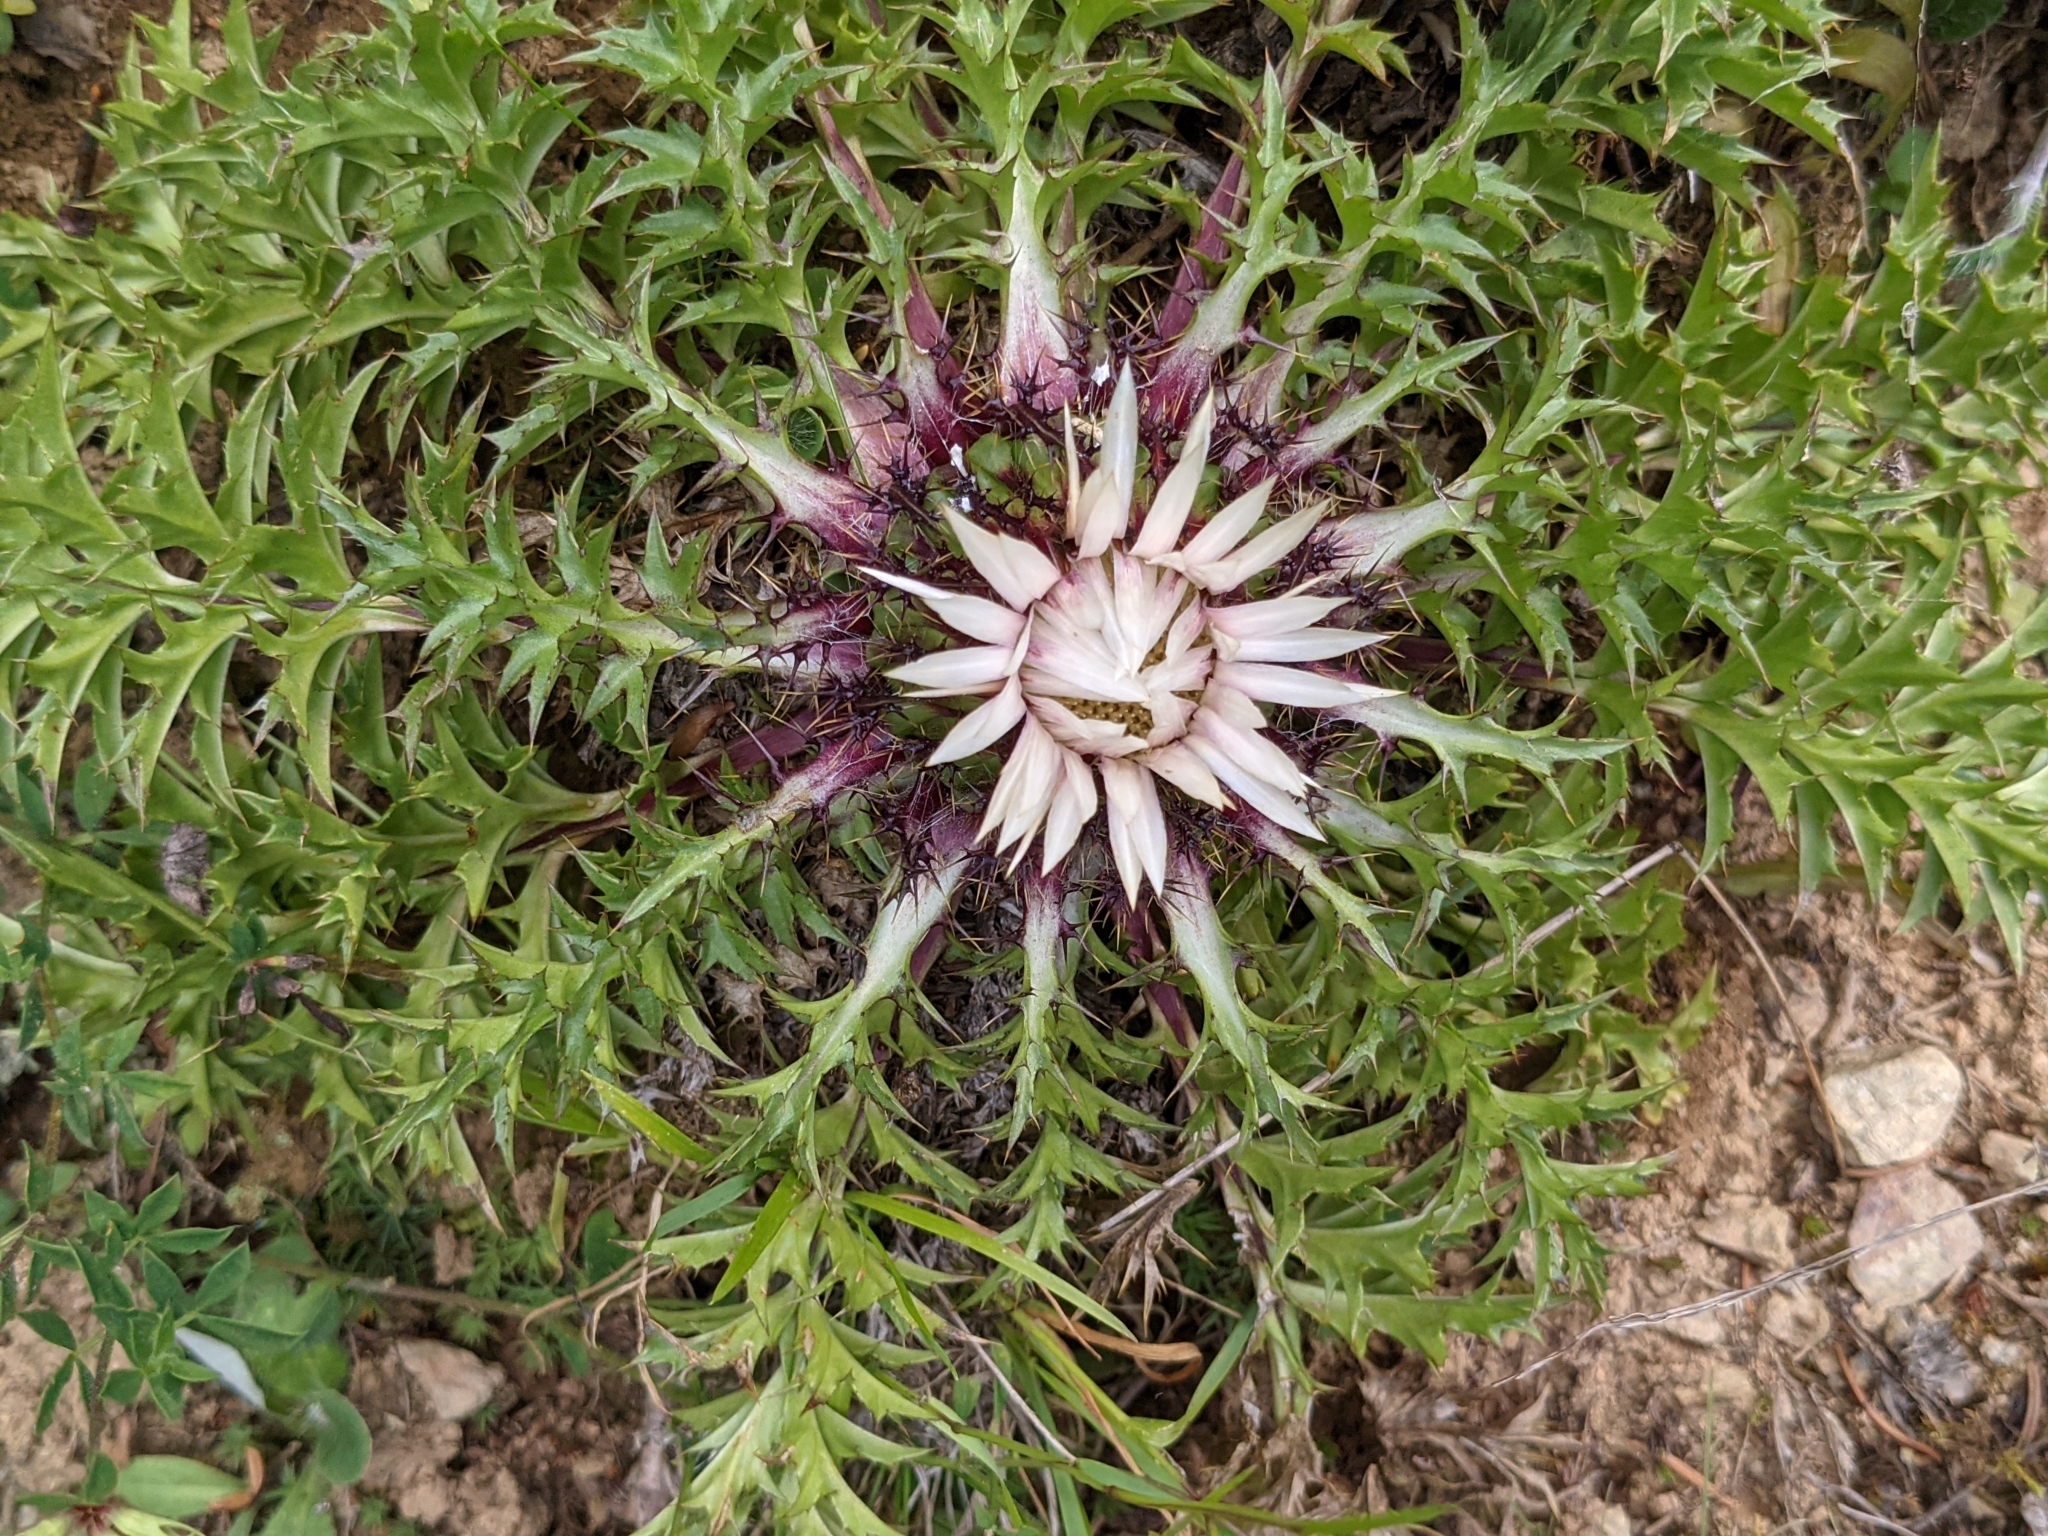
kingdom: Plantae
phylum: Tracheophyta
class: Magnoliopsida
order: Asterales
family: Asteraceae
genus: Carlina
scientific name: Carlina acaulis
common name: Stemless carline thistle
